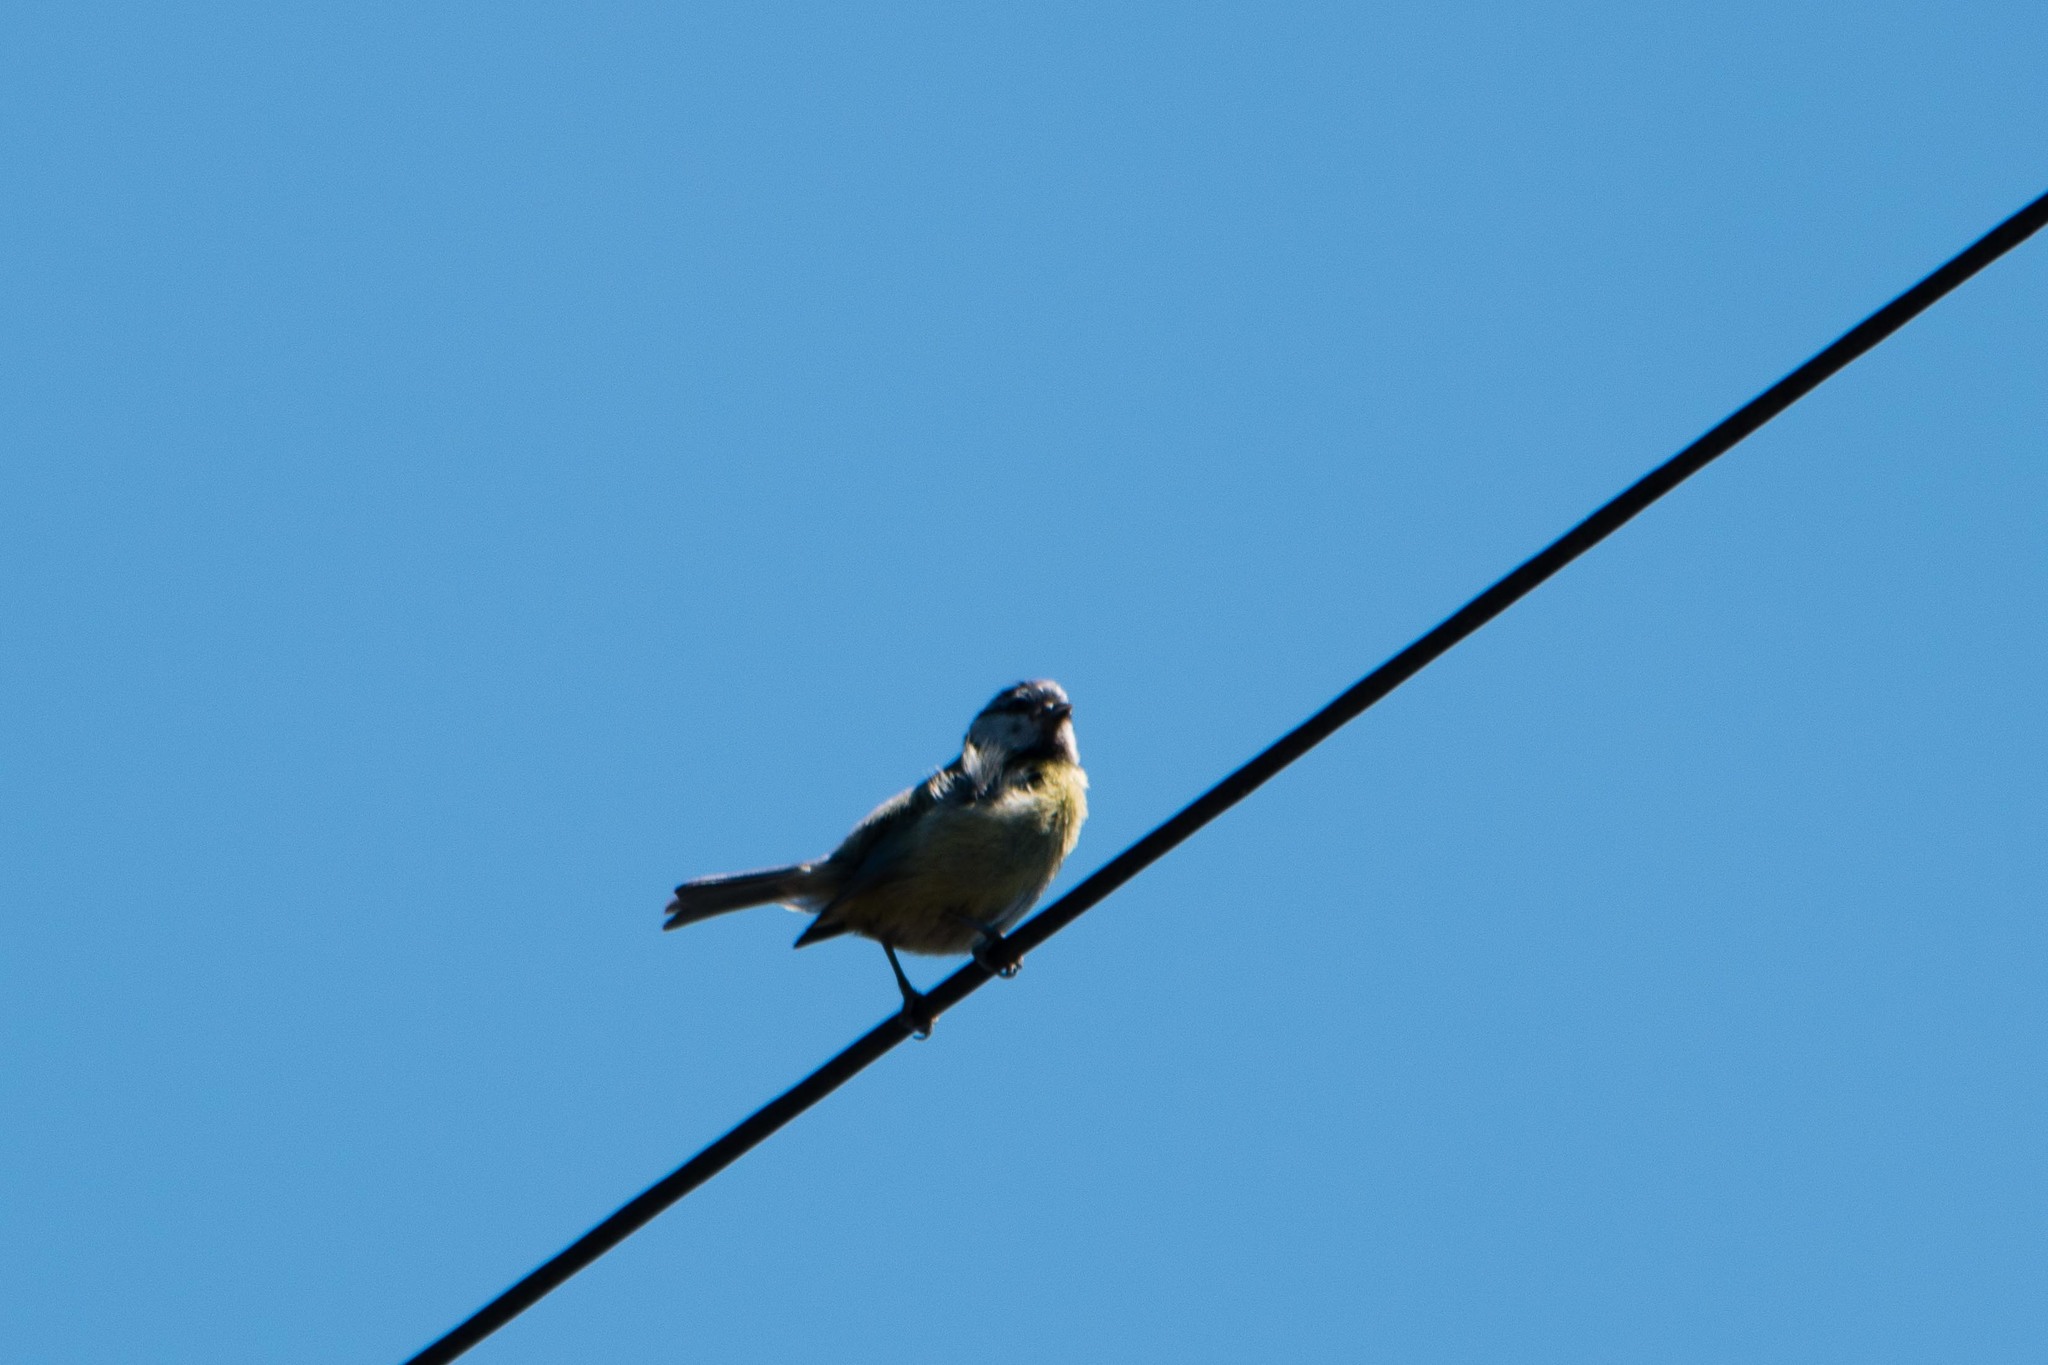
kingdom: Animalia
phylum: Chordata
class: Aves
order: Passeriformes
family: Paridae
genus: Cyanistes
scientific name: Cyanistes caeruleus
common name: Eurasian blue tit
